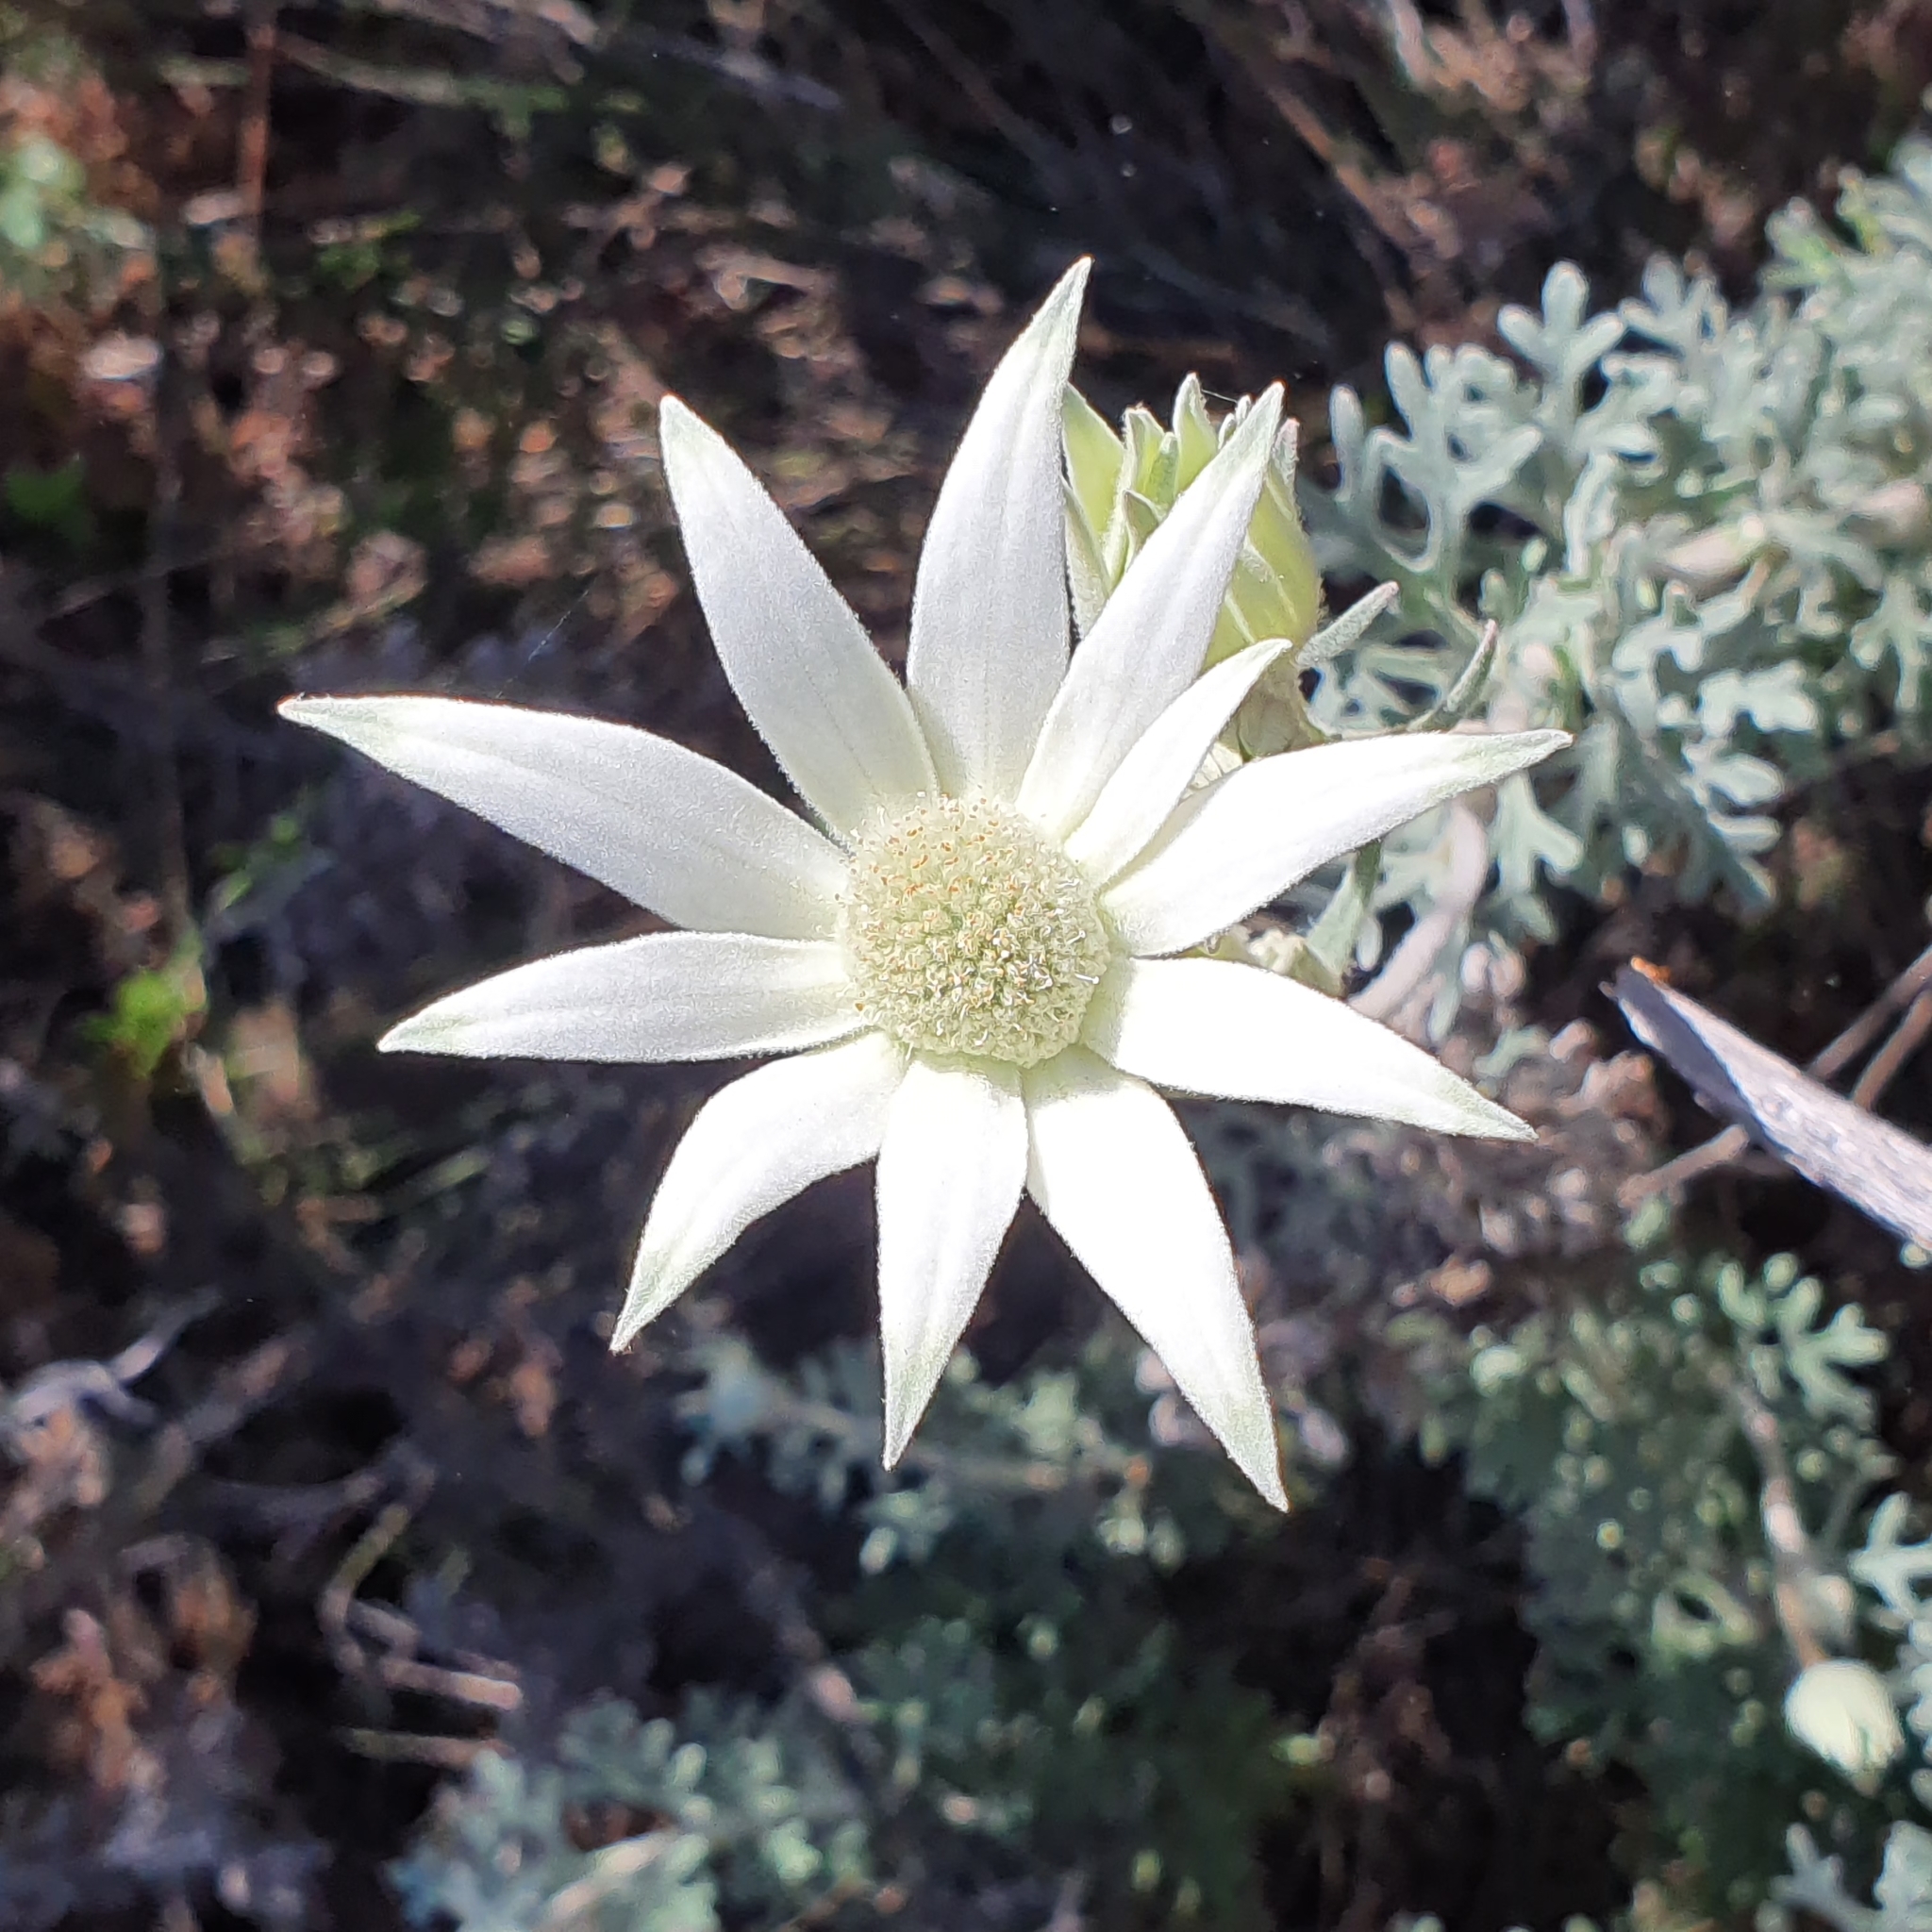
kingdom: Plantae
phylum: Tracheophyta
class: Magnoliopsida
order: Apiales
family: Apiaceae
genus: Actinotus
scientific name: Actinotus helianthi
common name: Flannel-flower
